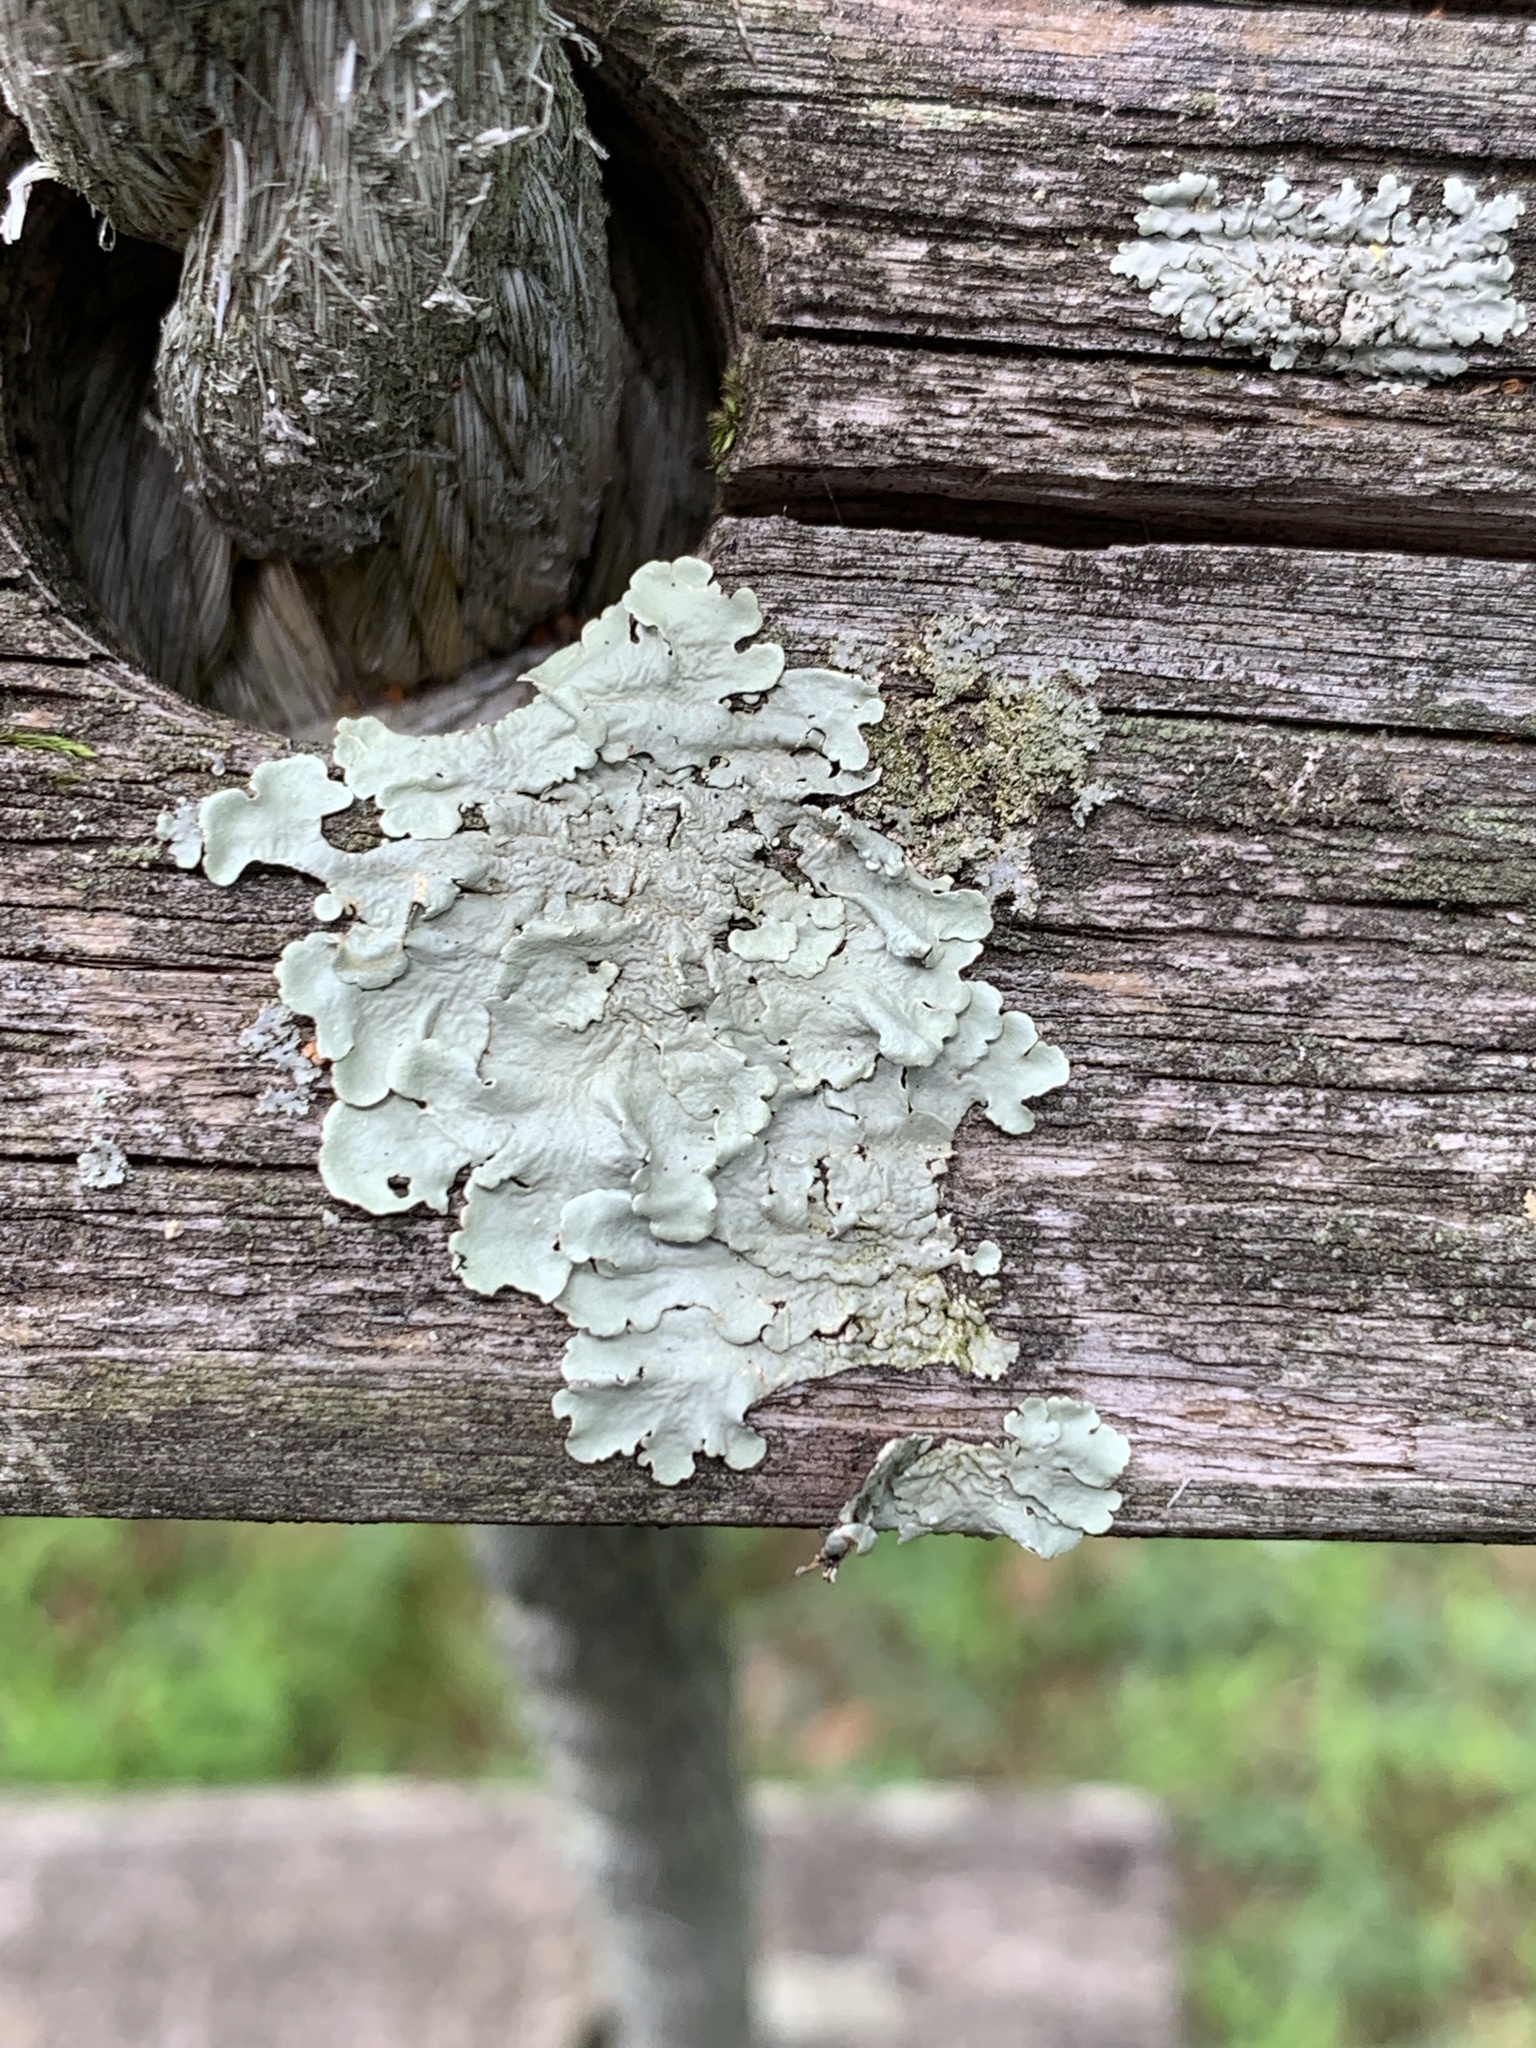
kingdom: Fungi
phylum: Ascomycota
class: Lecanoromycetes
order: Lecanorales
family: Parmeliaceae
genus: Flavoparmelia
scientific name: Flavoparmelia caperata
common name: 40-mile per hour lichen
